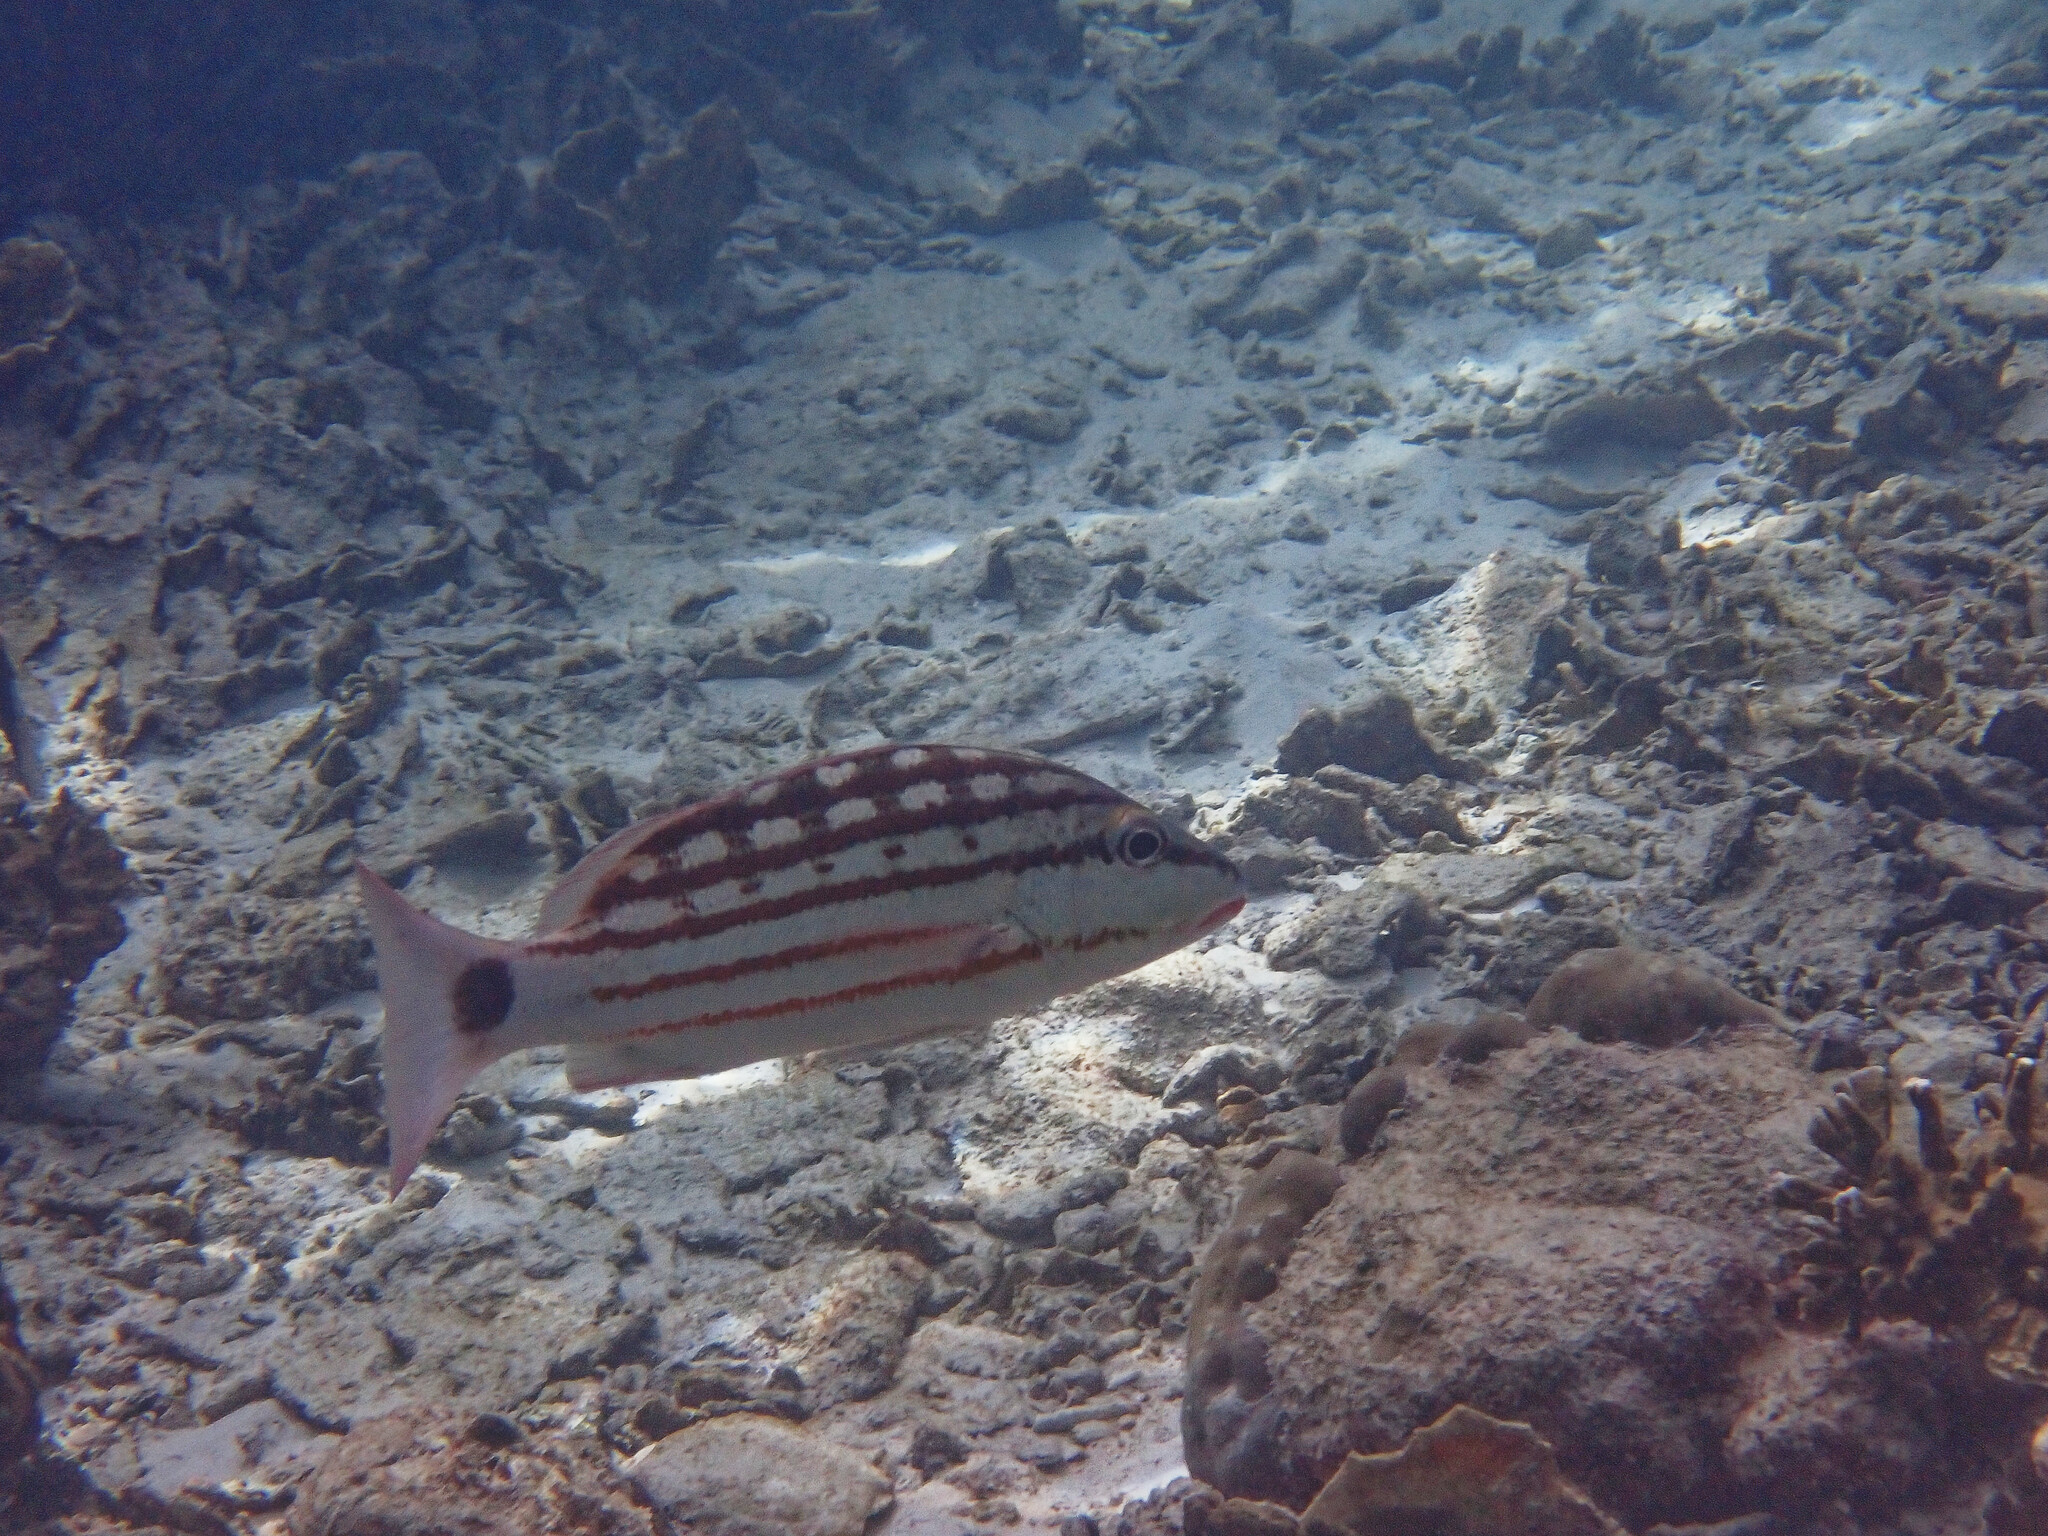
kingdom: Animalia
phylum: Chordata
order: Perciformes
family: Lutjanidae
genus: Lutjanus
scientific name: Lutjanus decussatus
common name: Checkered snapper
